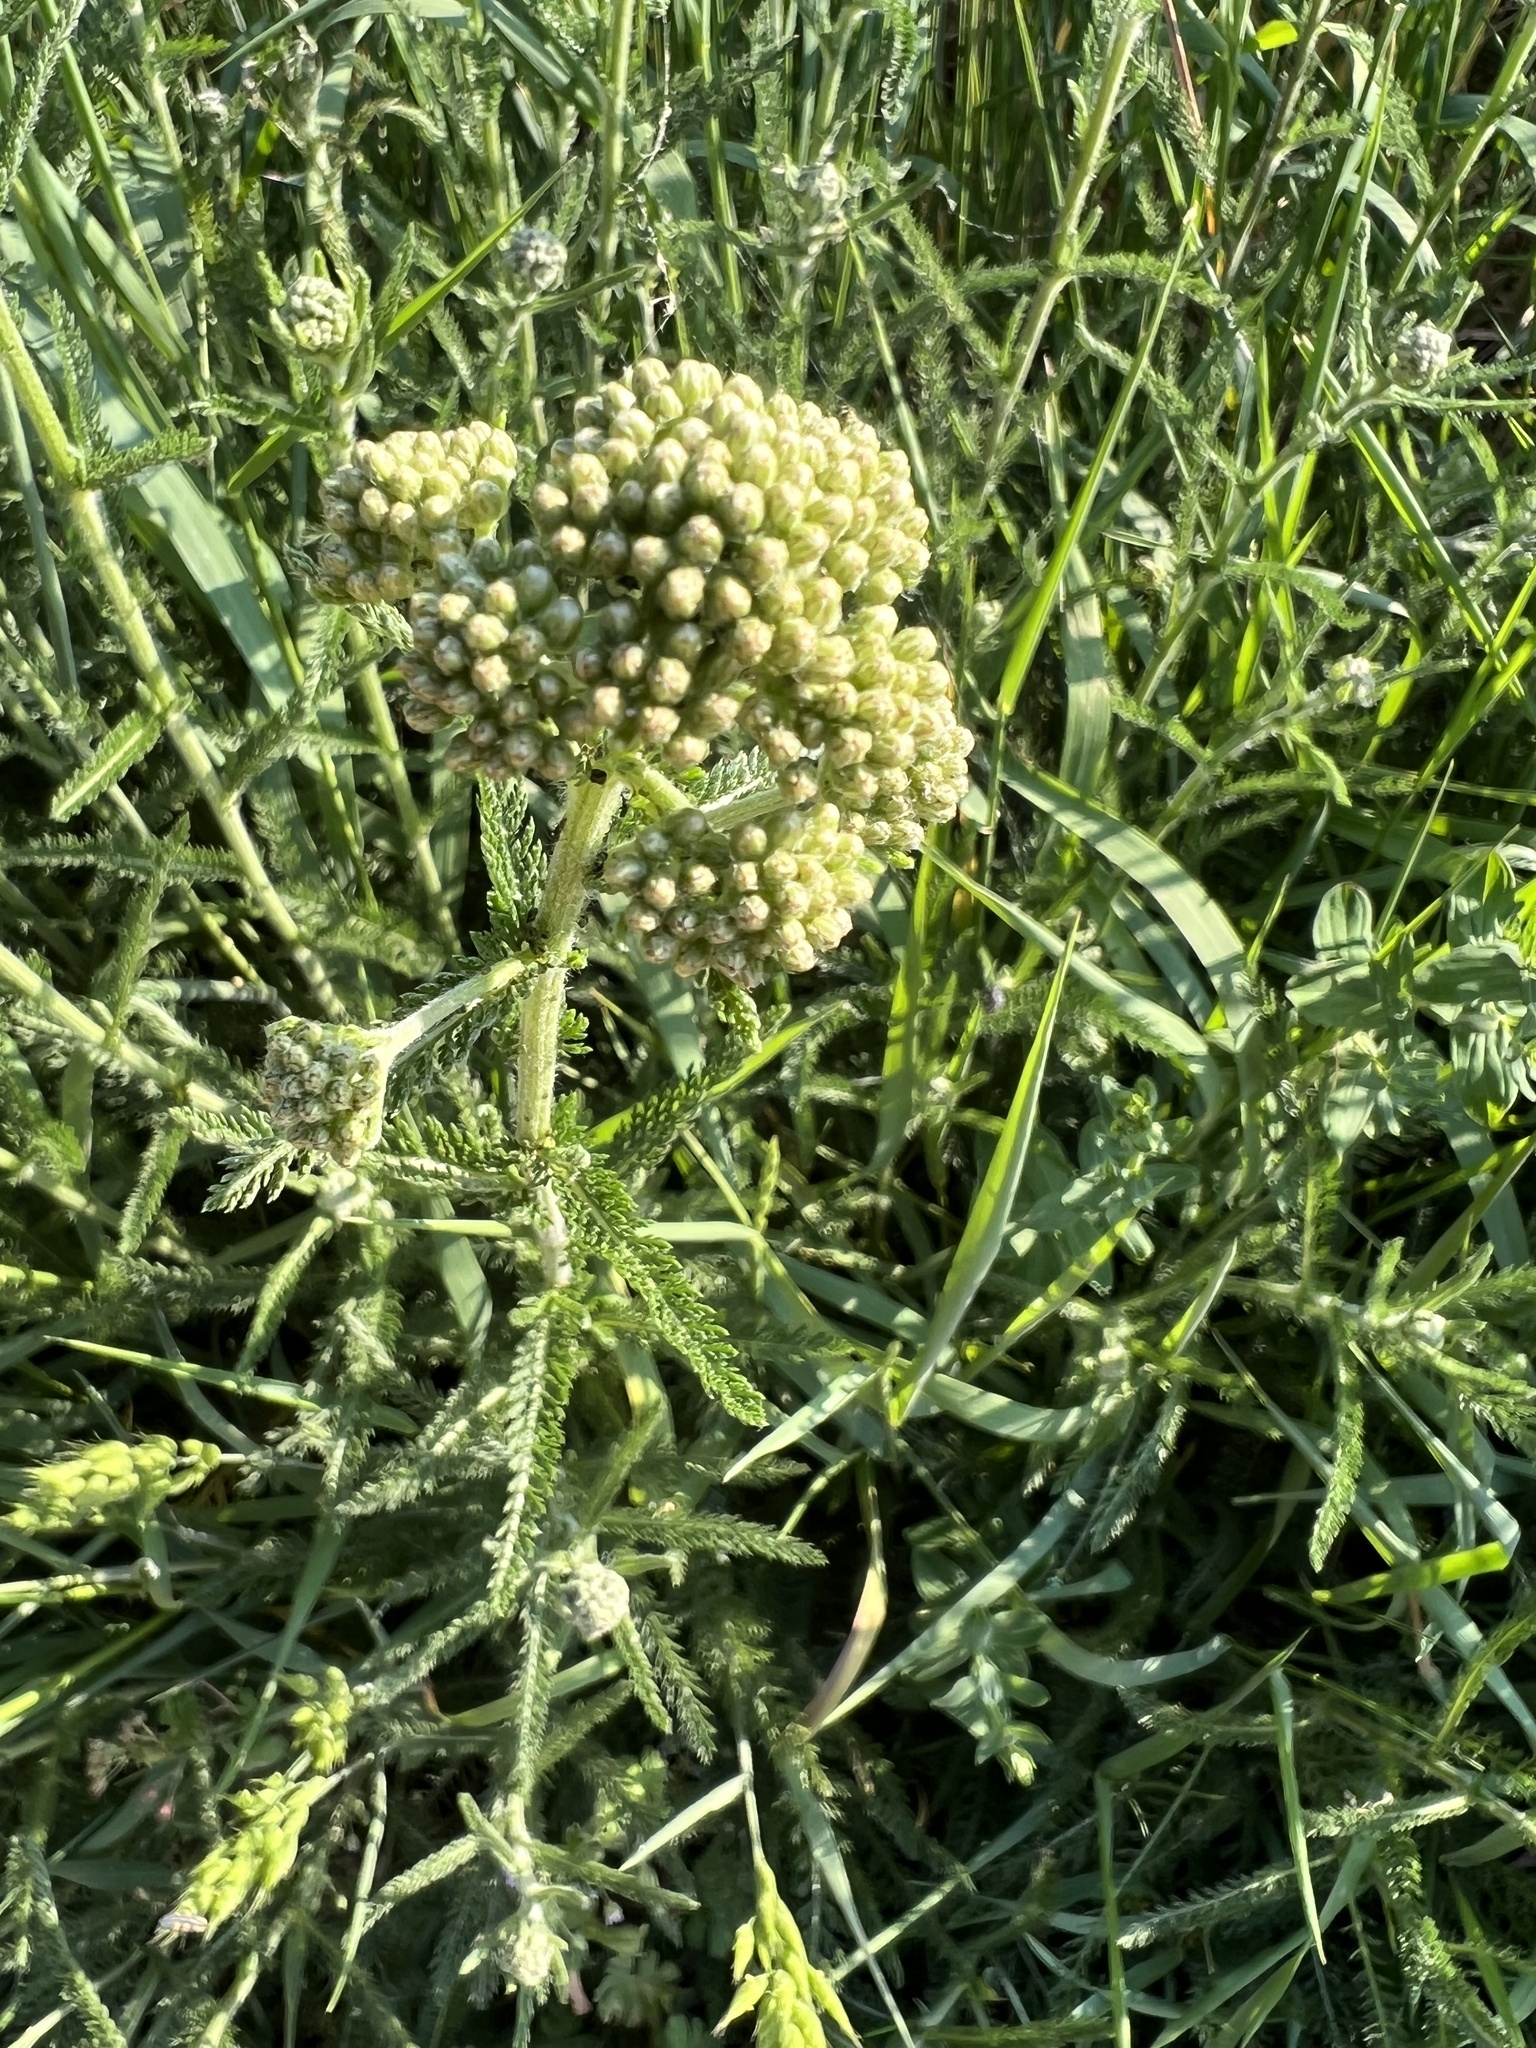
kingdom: Plantae
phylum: Tracheophyta
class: Magnoliopsida
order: Asterales
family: Asteraceae
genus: Achillea
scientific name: Achillea millefolium
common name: Yarrow
